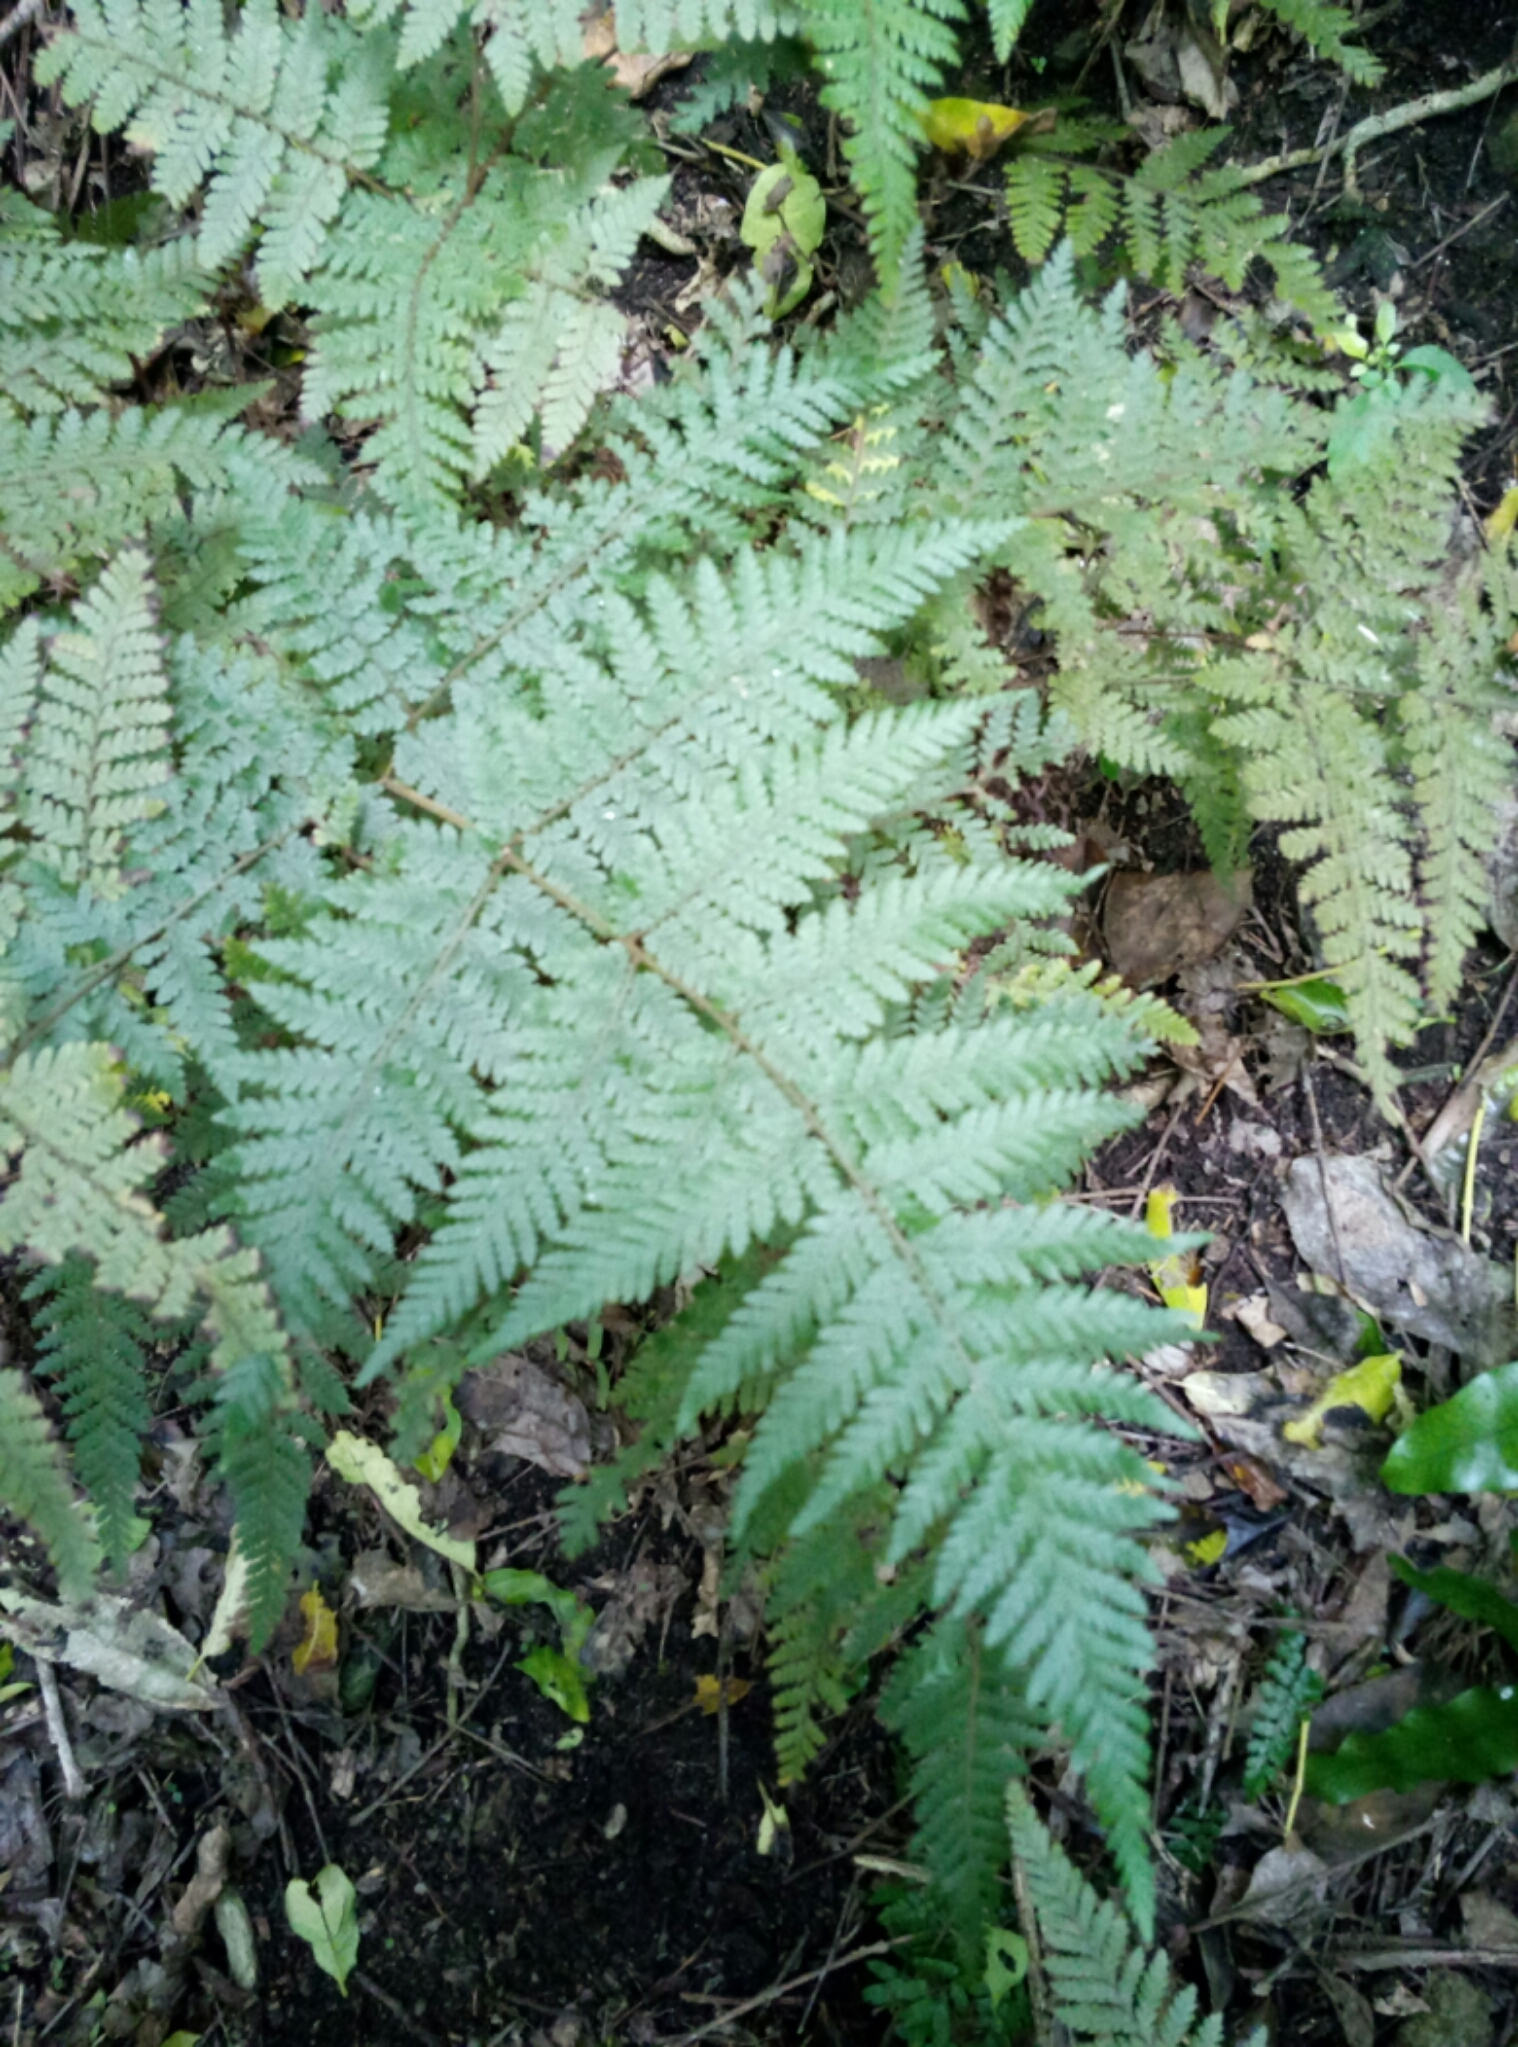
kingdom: Plantae
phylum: Tracheophyta
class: Polypodiopsida
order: Polypodiales
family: Dryopteridaceae
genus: Lastreopsis
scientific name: Lastreopsis velutina
